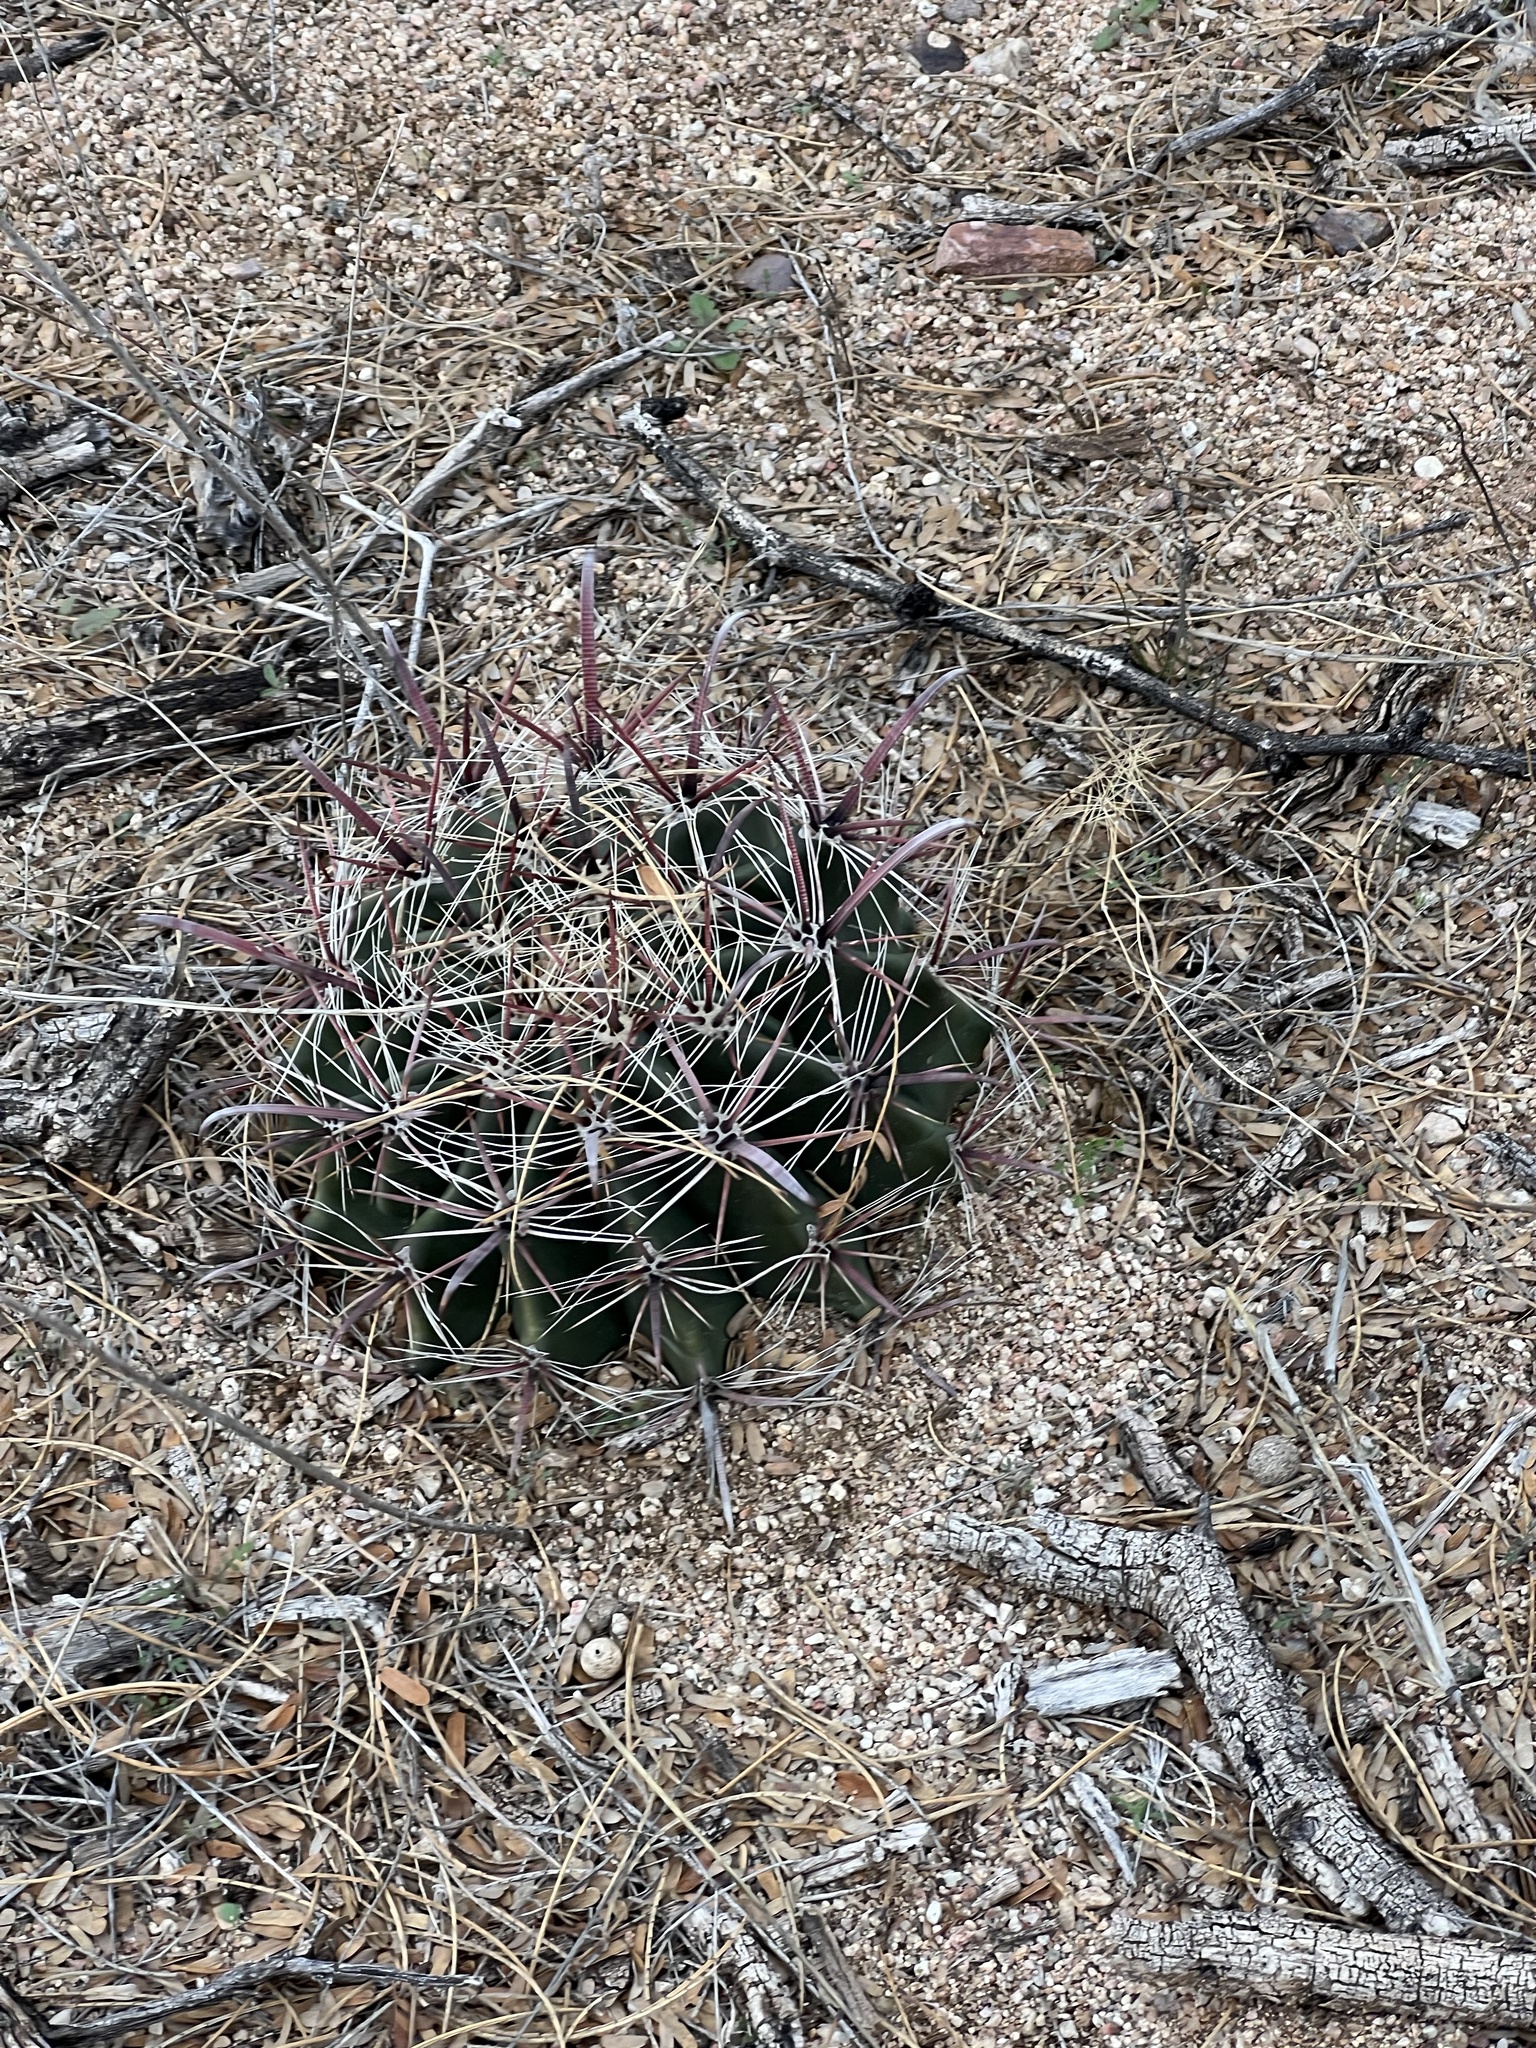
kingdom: Plantae
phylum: Tracheophyta
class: Magnoliopsida
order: Caryophyllales
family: Cactaceae
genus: Ferocactus
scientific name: Ferocactus wislizeni
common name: Candy barrel cactus
